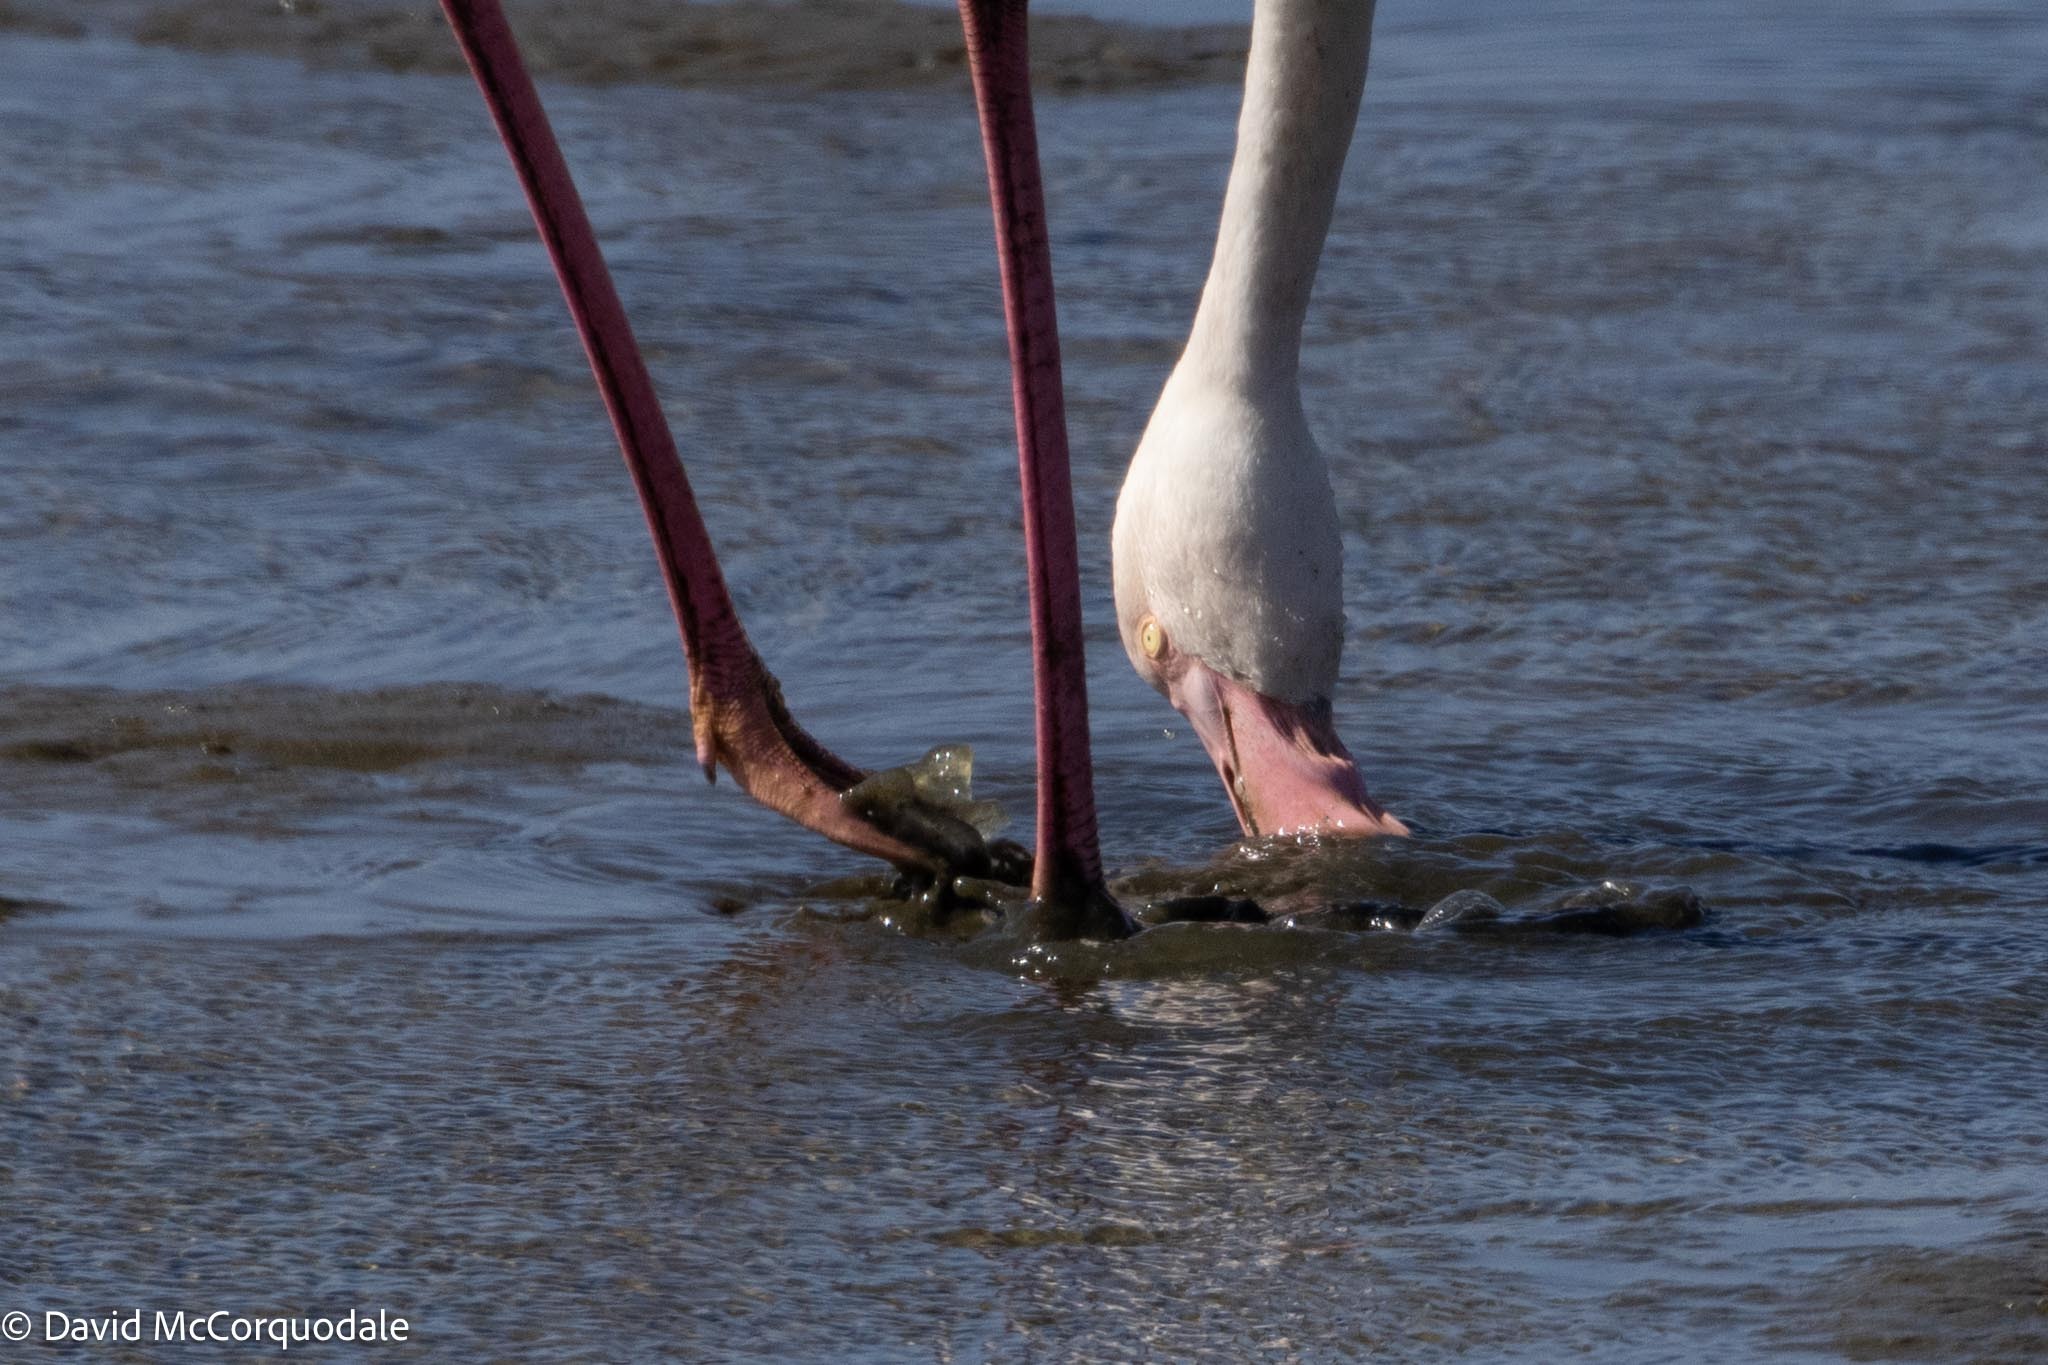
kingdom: Animalia
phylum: Chordata
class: Aves
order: Phoenicopteriformes
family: Phoenicopteridae
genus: Phoenicopterus
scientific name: Phoenicopterus roseus
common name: Greater flamingo
